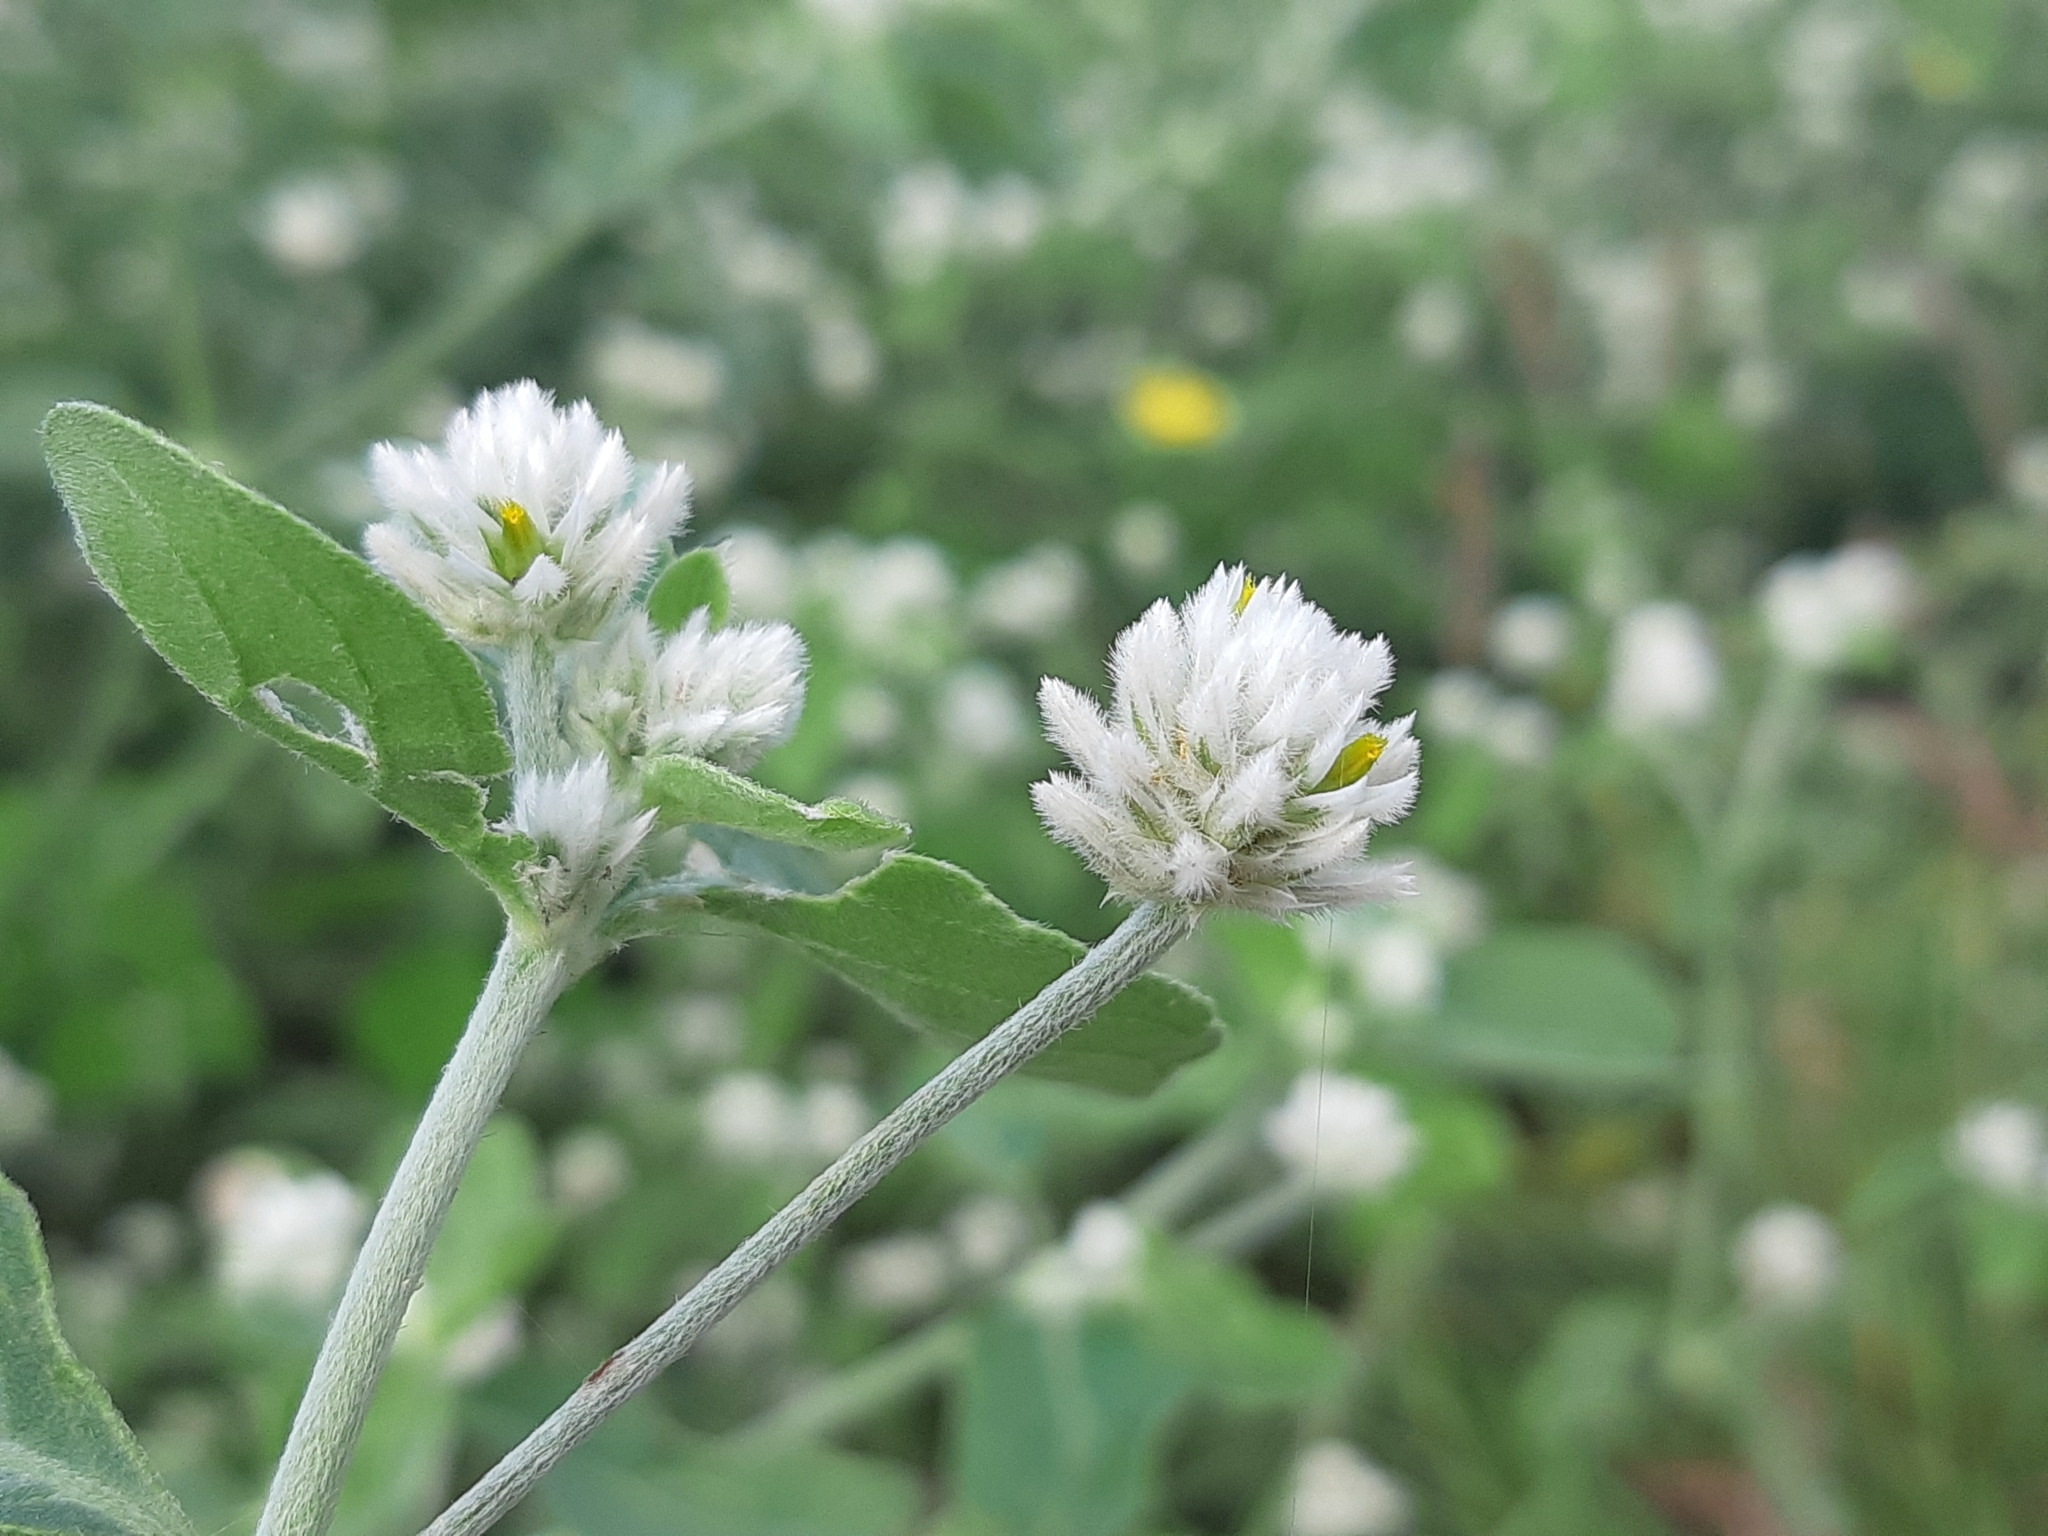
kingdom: Plantae
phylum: Tracheophyta
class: Magnoliopsida
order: Caryophyllales
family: Amaranthaceae
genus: Alternanthera
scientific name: Alternanthera pubiflora
